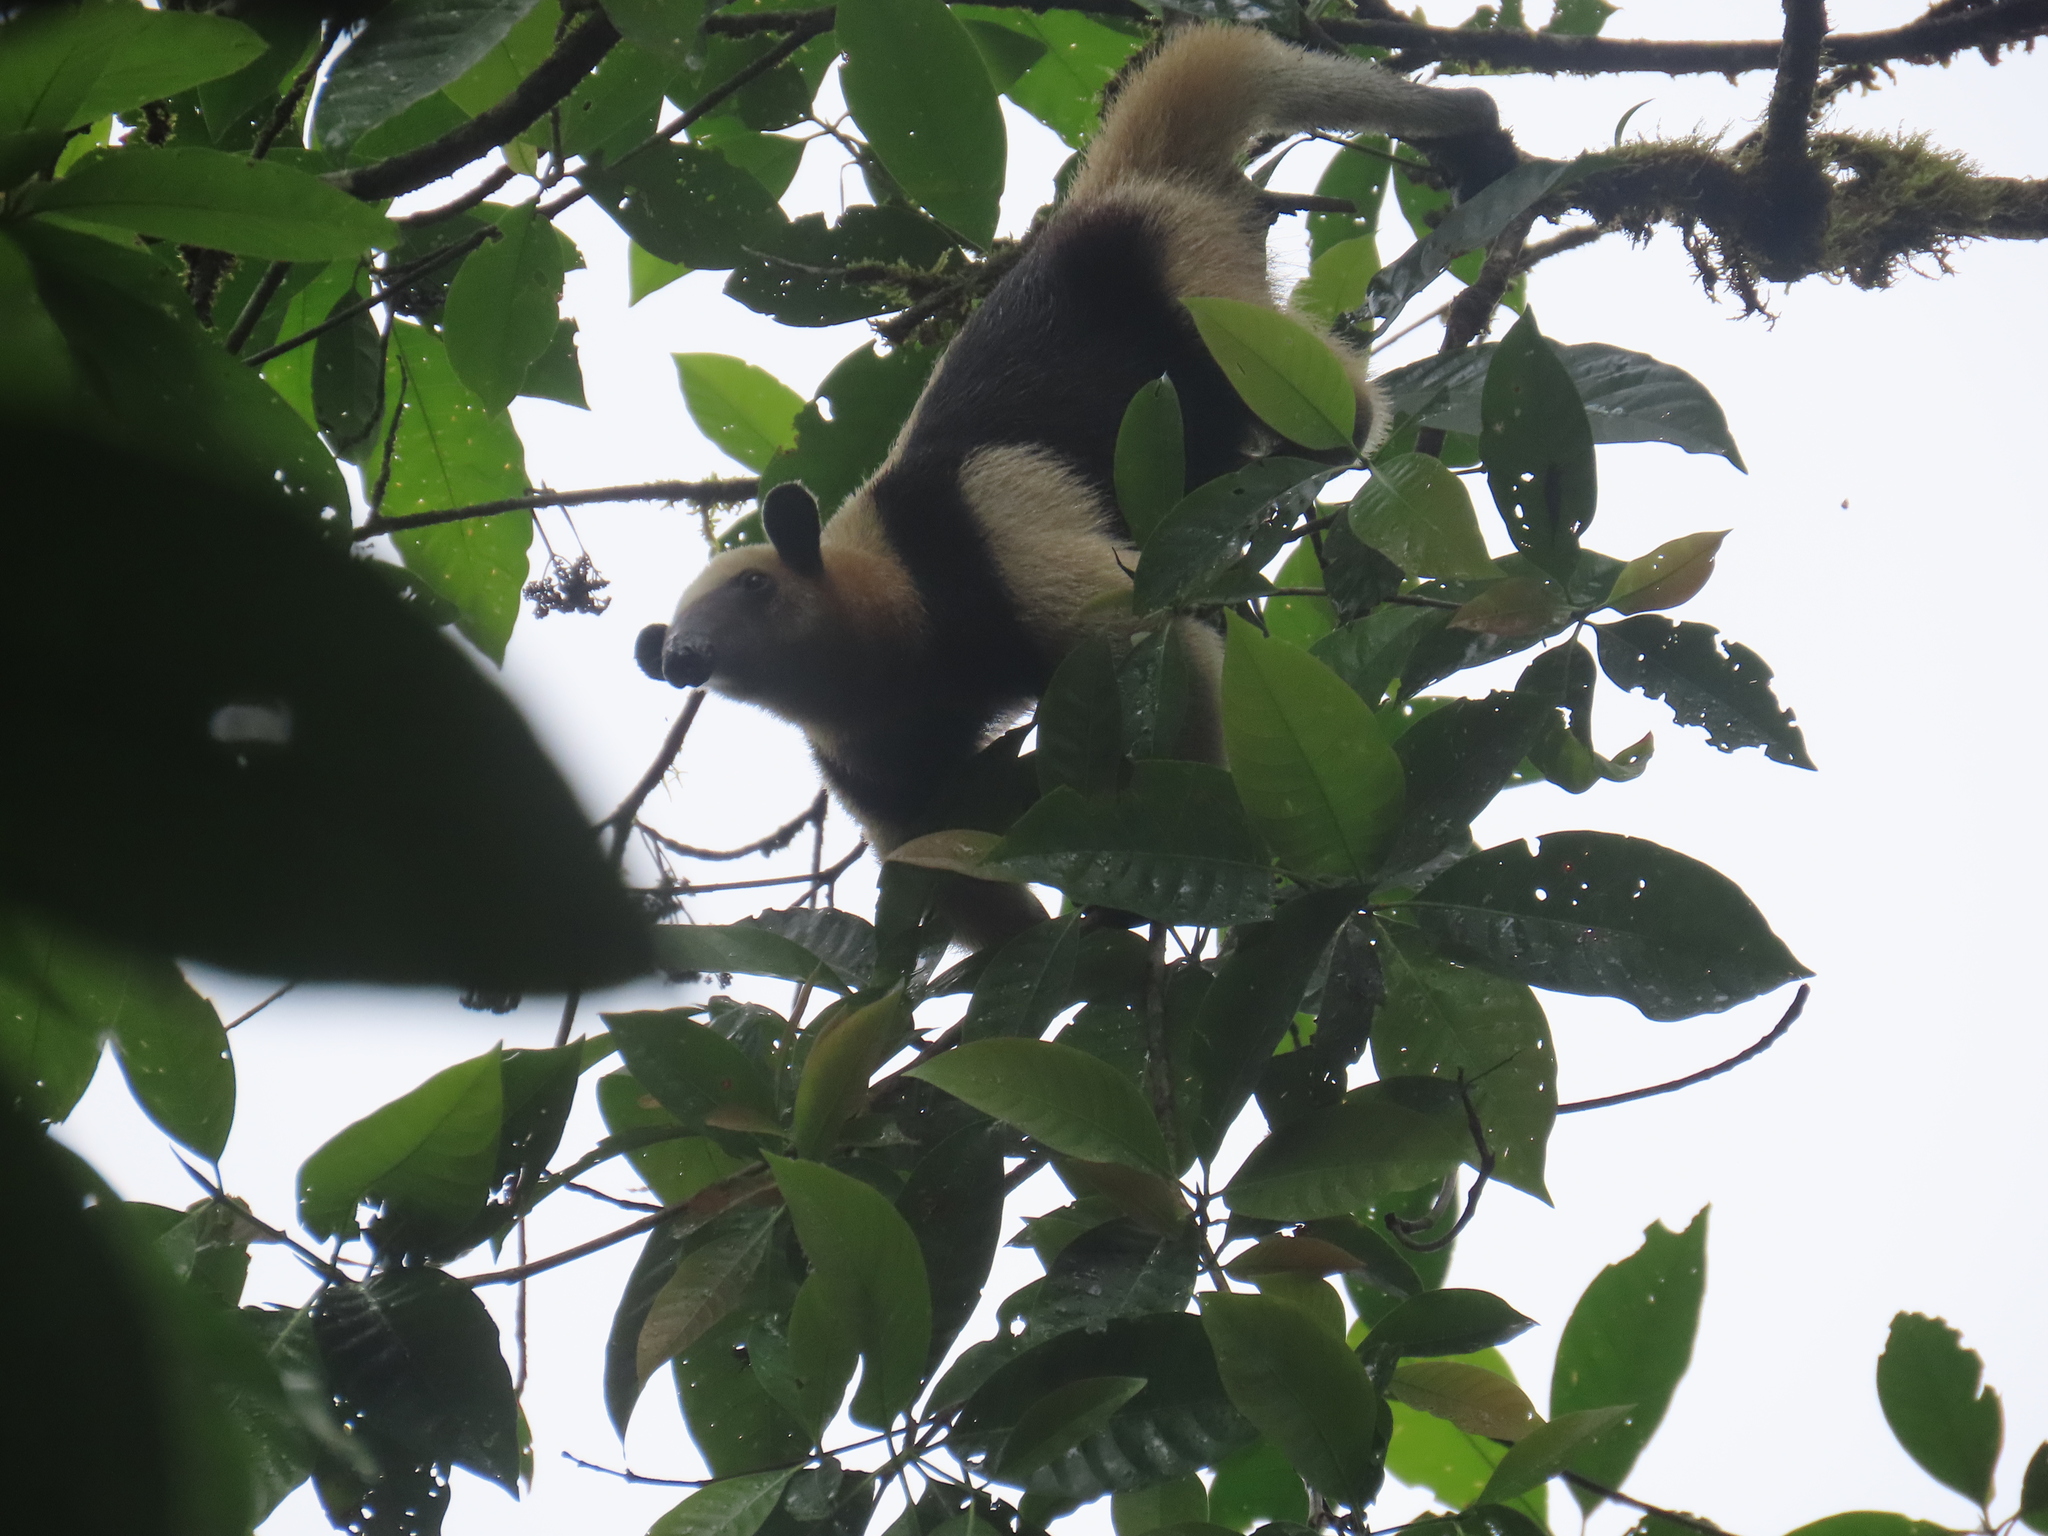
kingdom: Animalia
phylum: Chordata
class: Mammalia
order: Pilosa
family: Myrmecophagidae
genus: Tamandua
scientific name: Tamandua mexicana
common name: Northern tamandua
